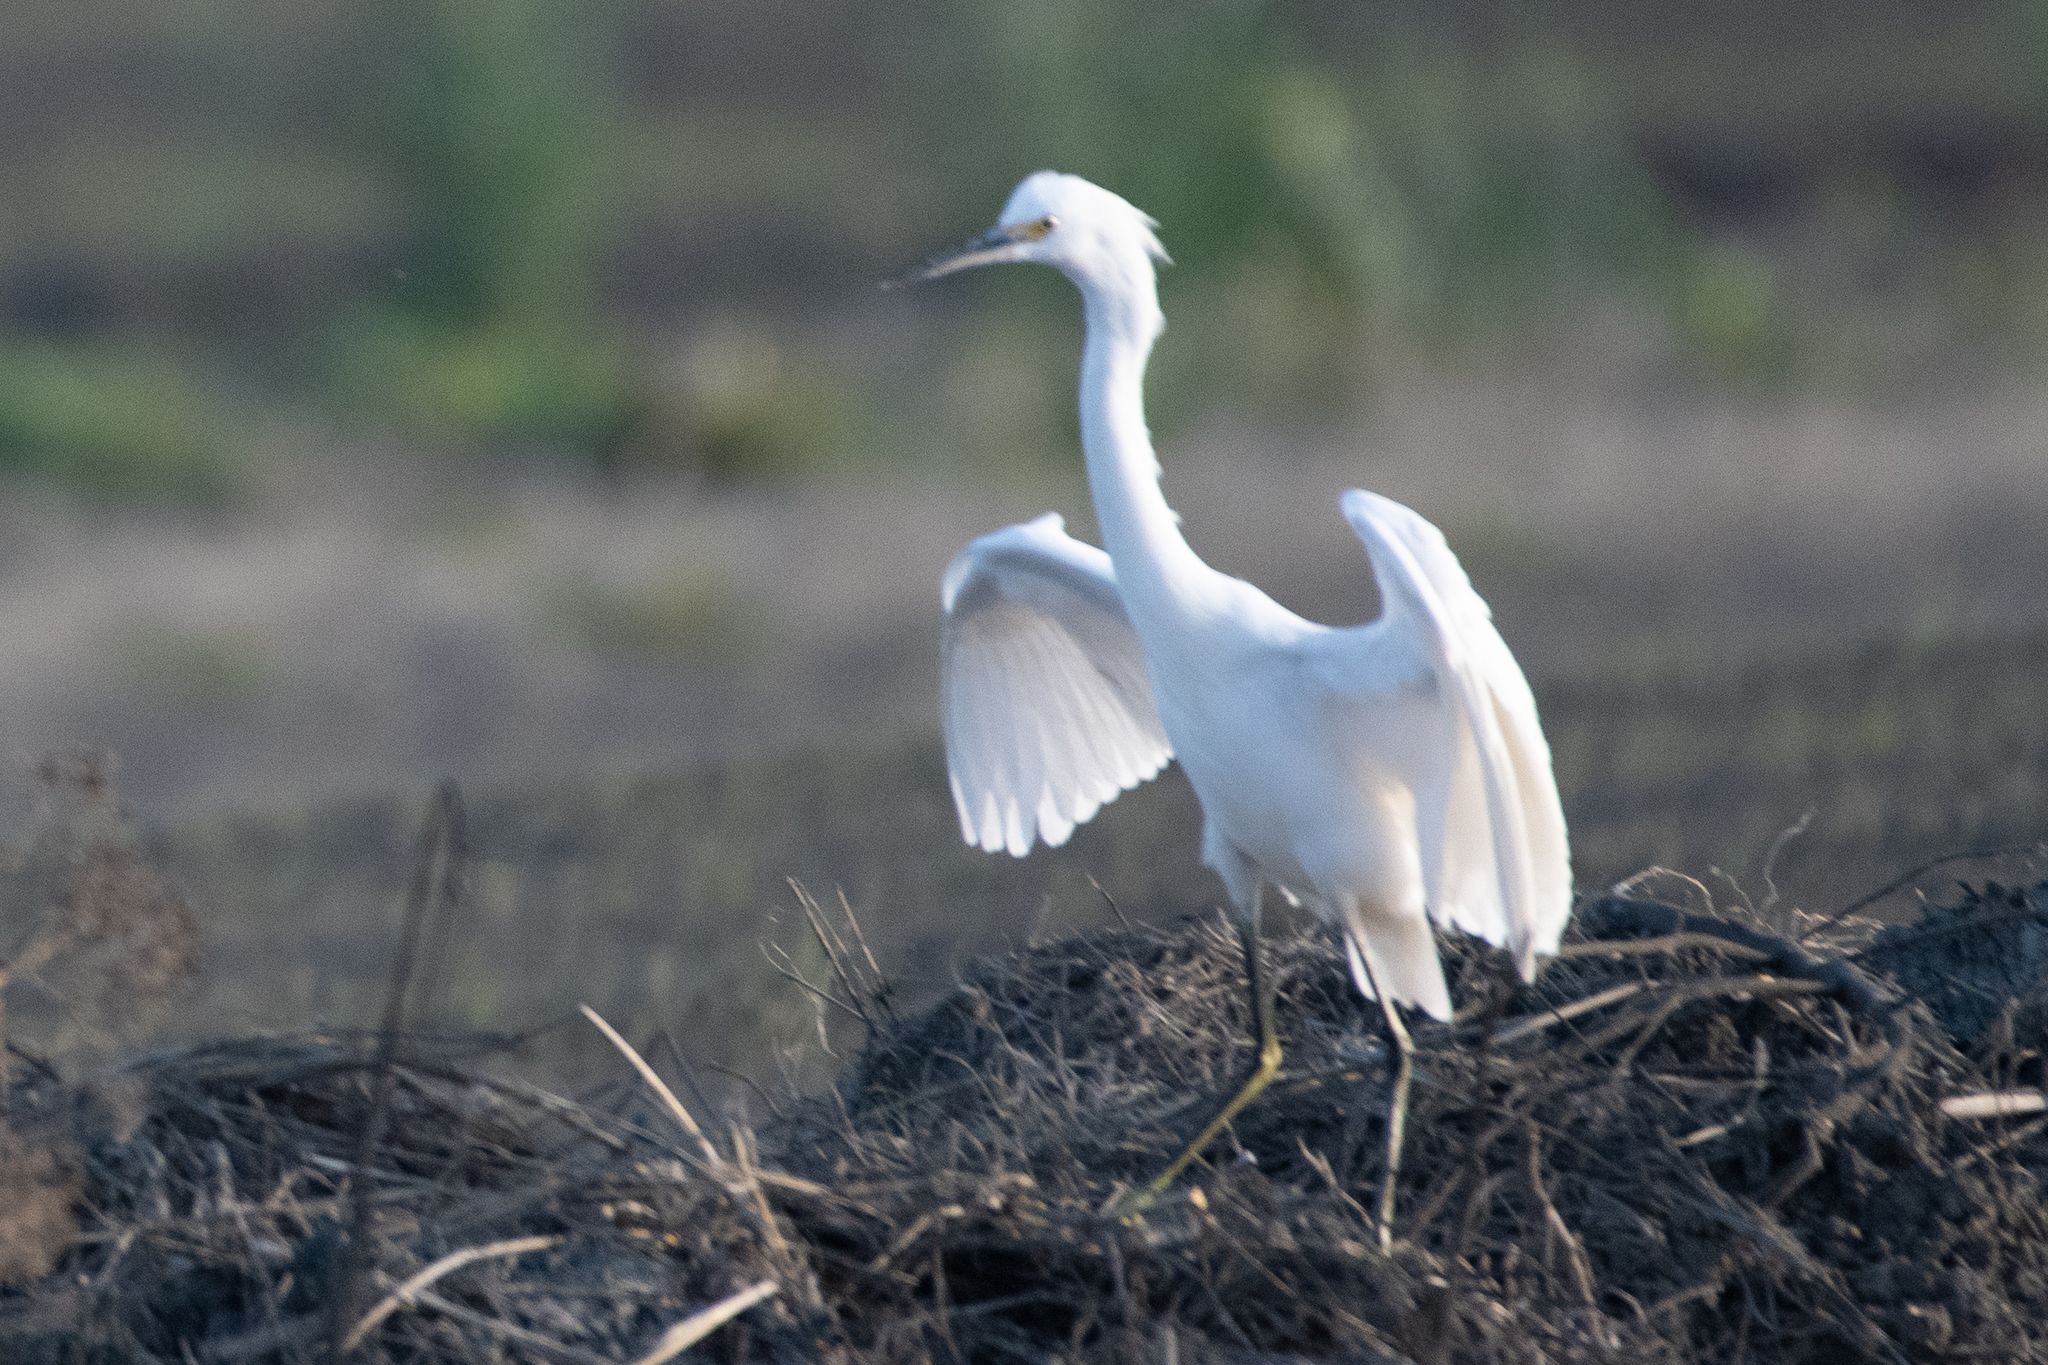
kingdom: Animalia
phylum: Chordata
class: Aves
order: Pelecaniformes
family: Ardeidae
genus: Egretta
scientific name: Egretta thula
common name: Snowy egret
